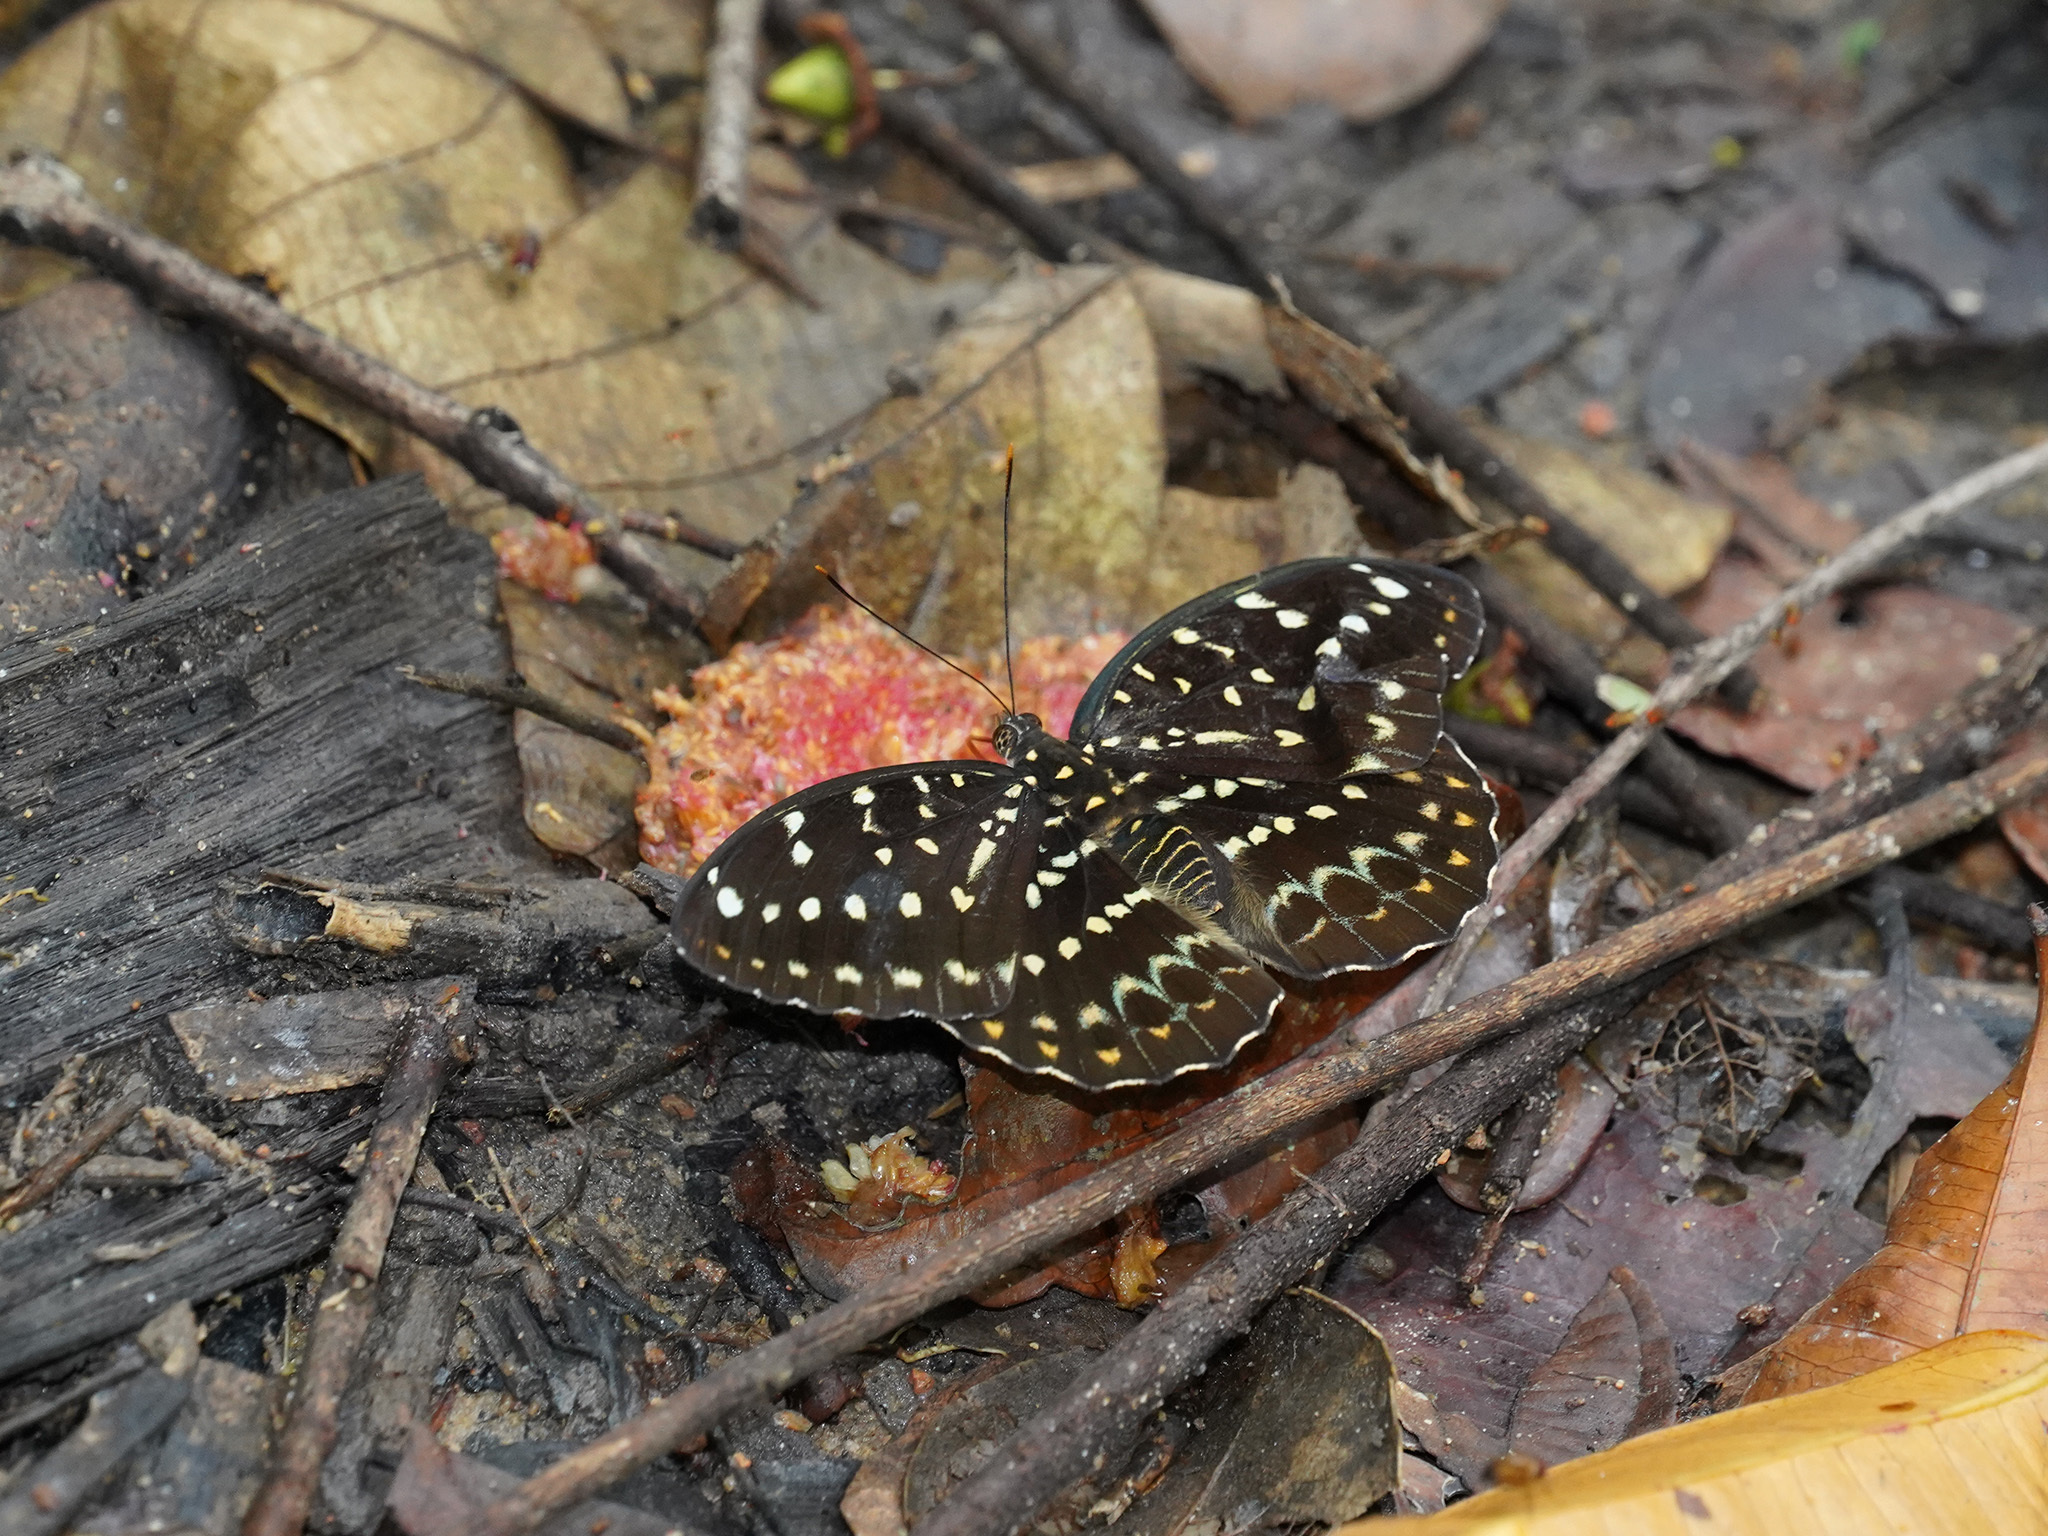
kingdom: Animalia
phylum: Arthropoda
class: Insecta
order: Lepidoptera
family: Nymphalidae
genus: Lexias
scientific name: Lexias pardalis
